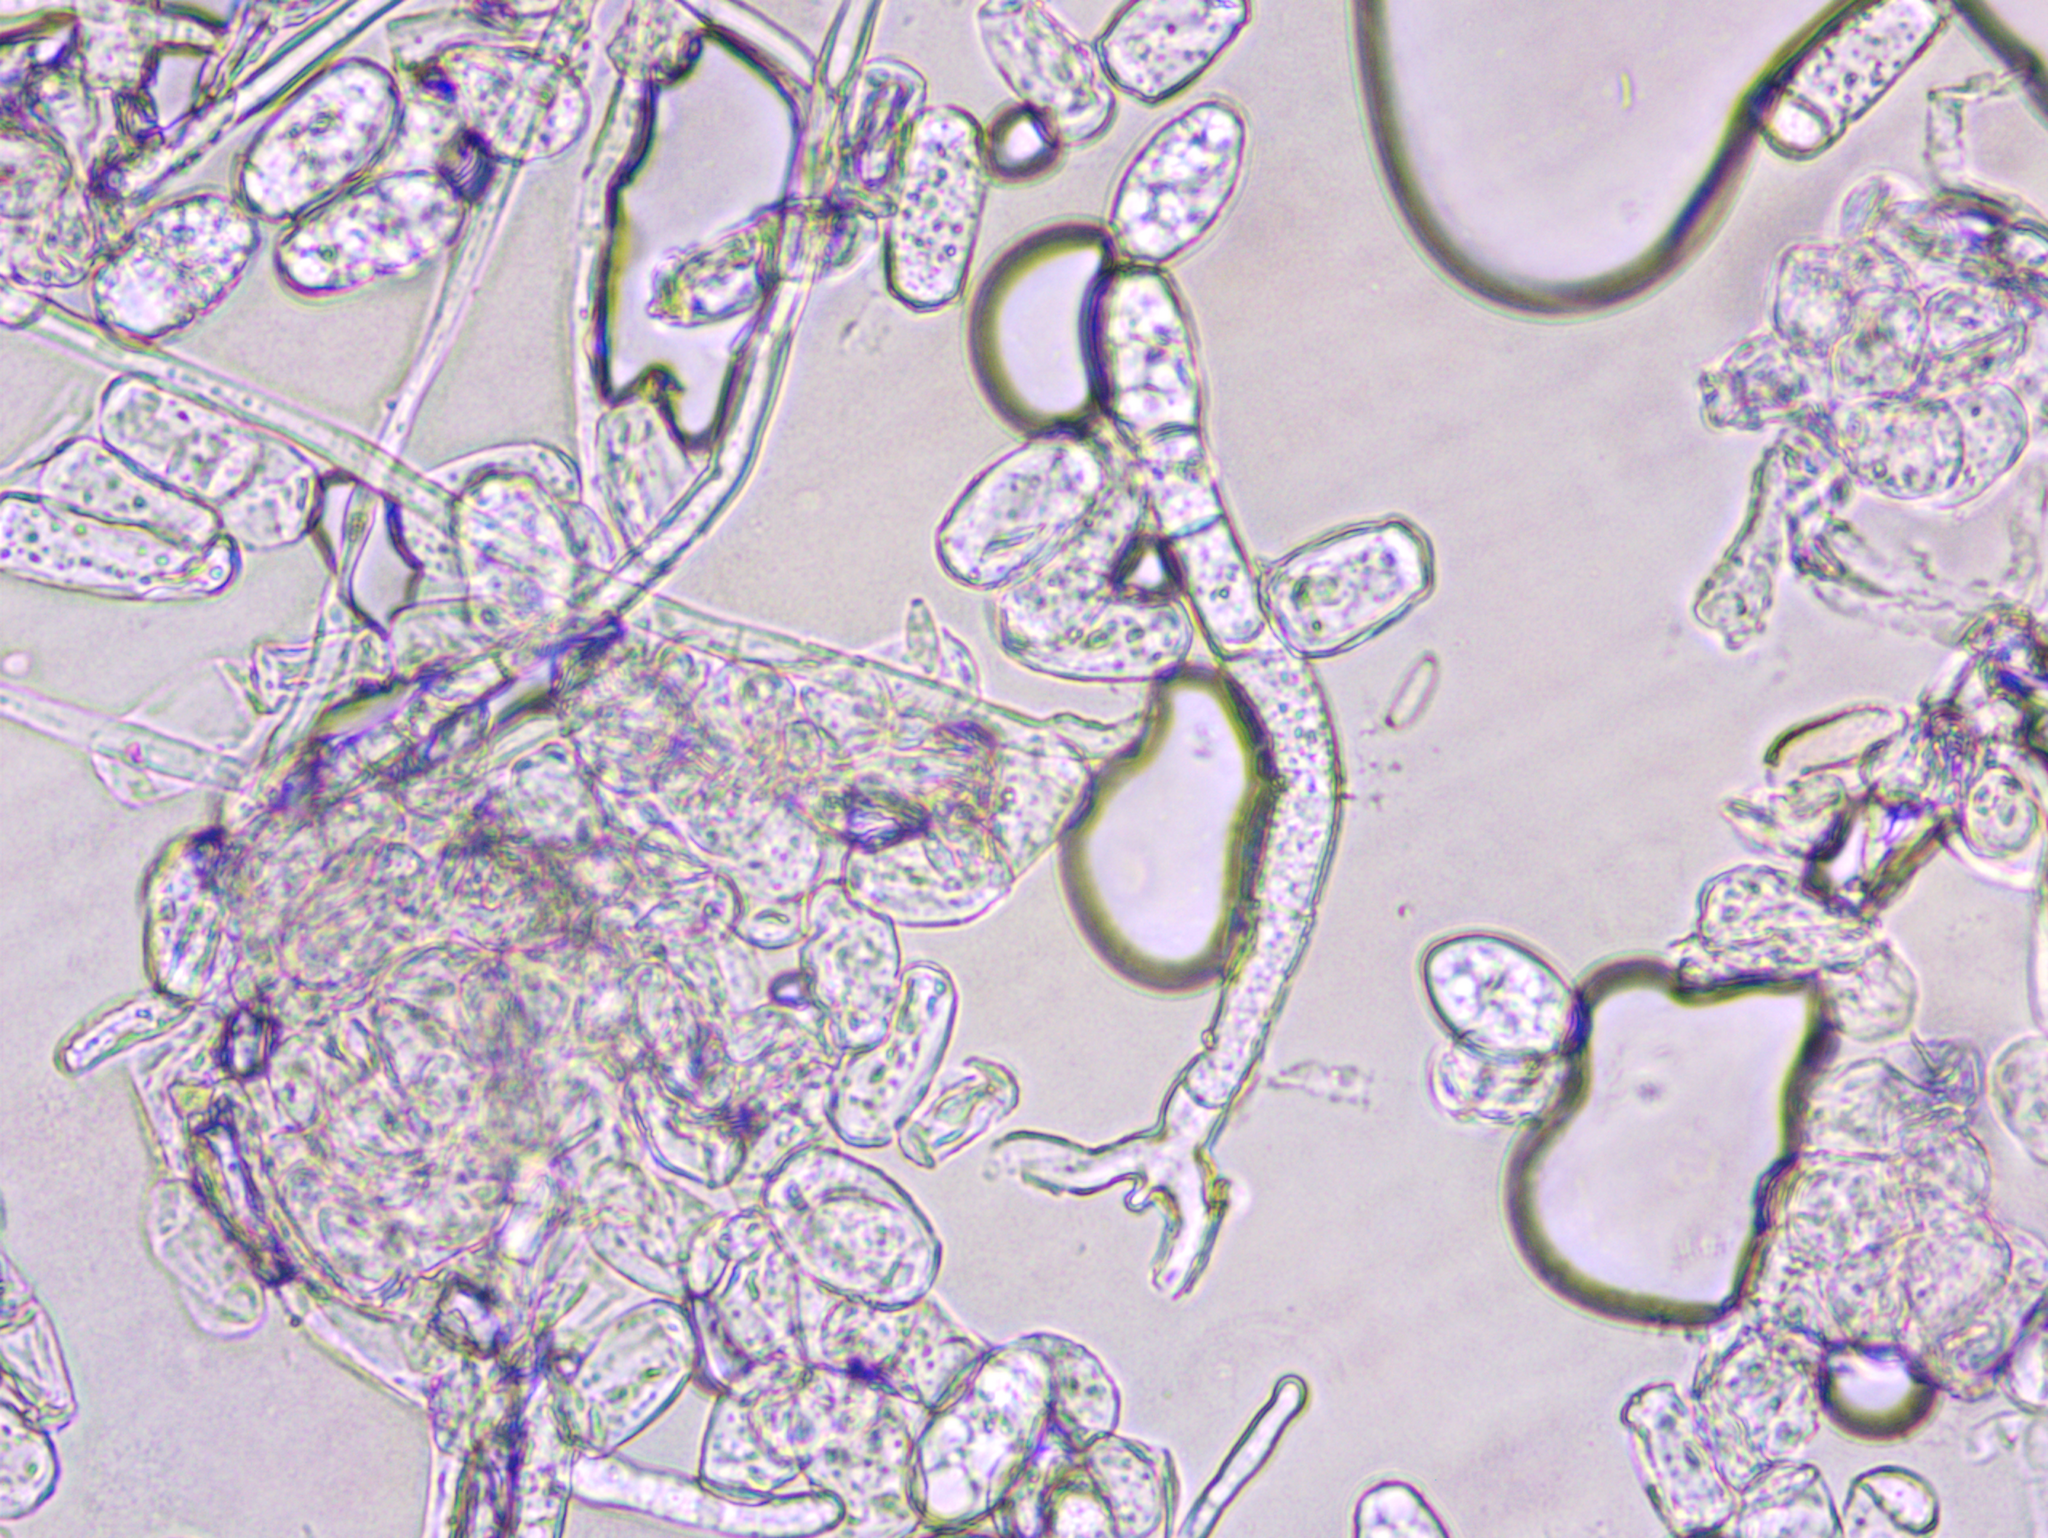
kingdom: Fungi
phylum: Ascomycota
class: Leotiomycetes
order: Helotiales
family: Erysiphaceae
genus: Podosphaera
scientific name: Podosphaera pannosa
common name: Rose mildew
